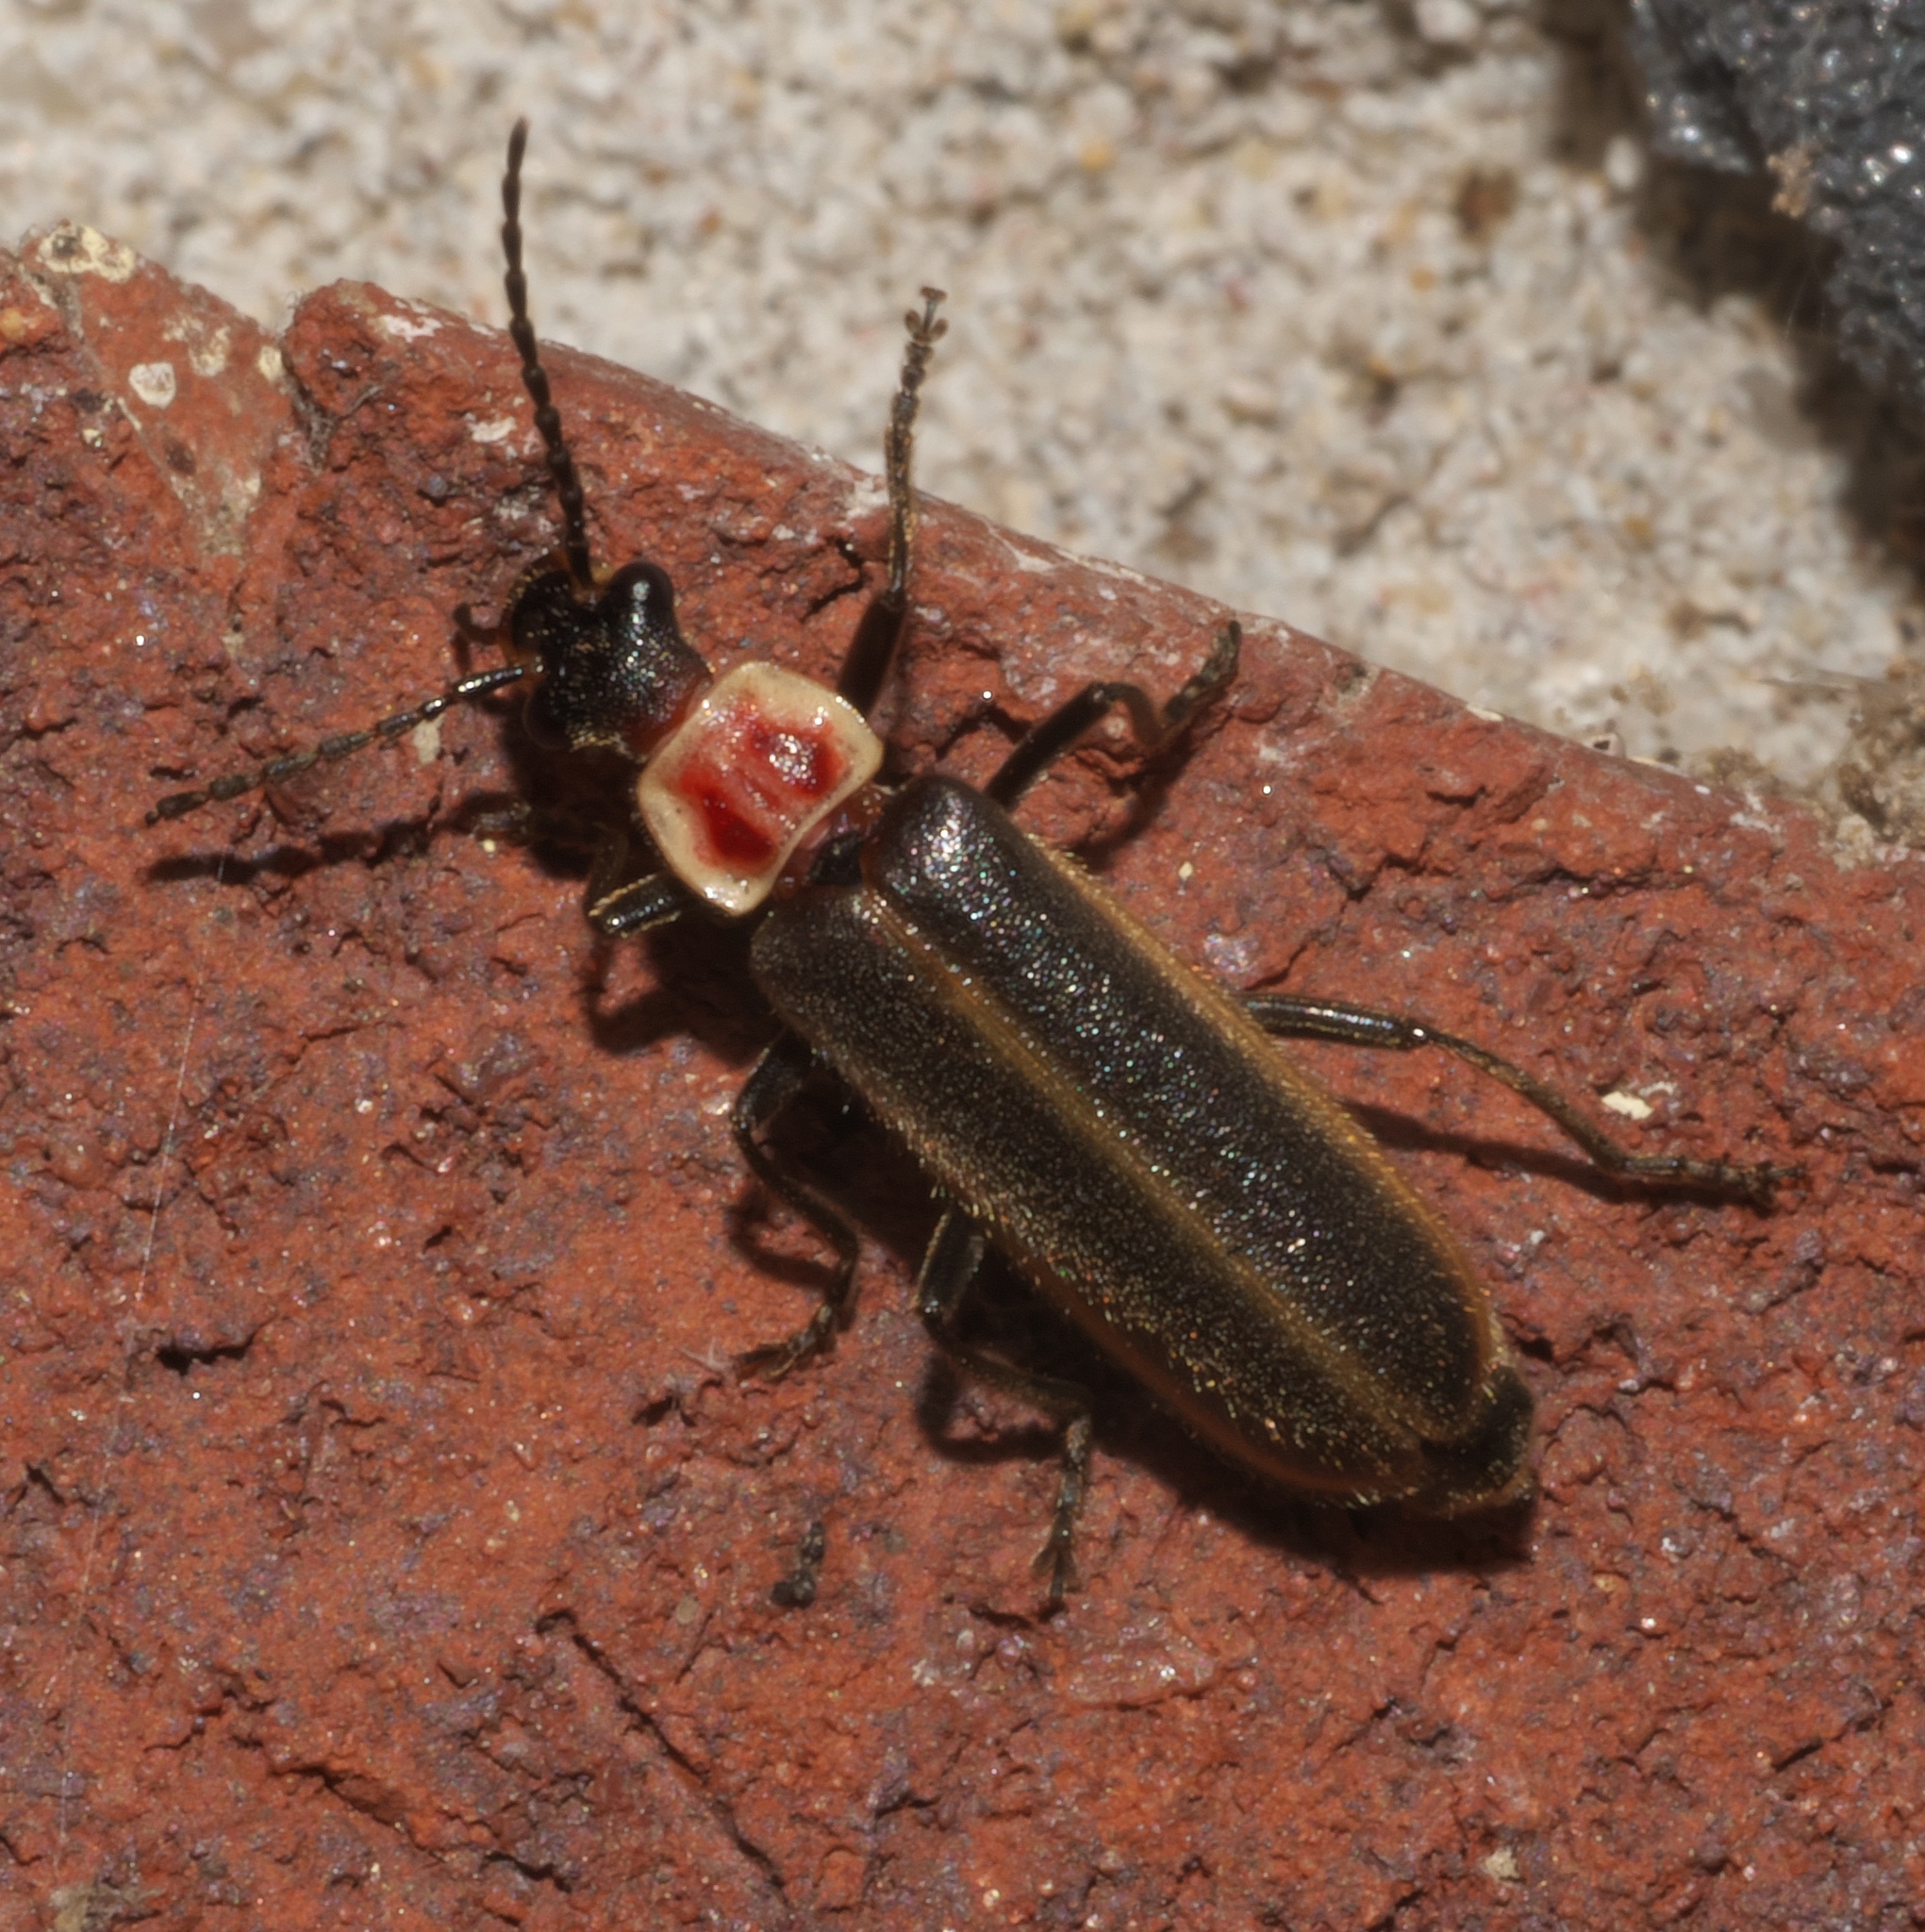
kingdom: Animalia
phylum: Arthropoda
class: Insecta
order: Coleoptera
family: Cantharidae
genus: Podabrus
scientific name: Podabrus knobeli
